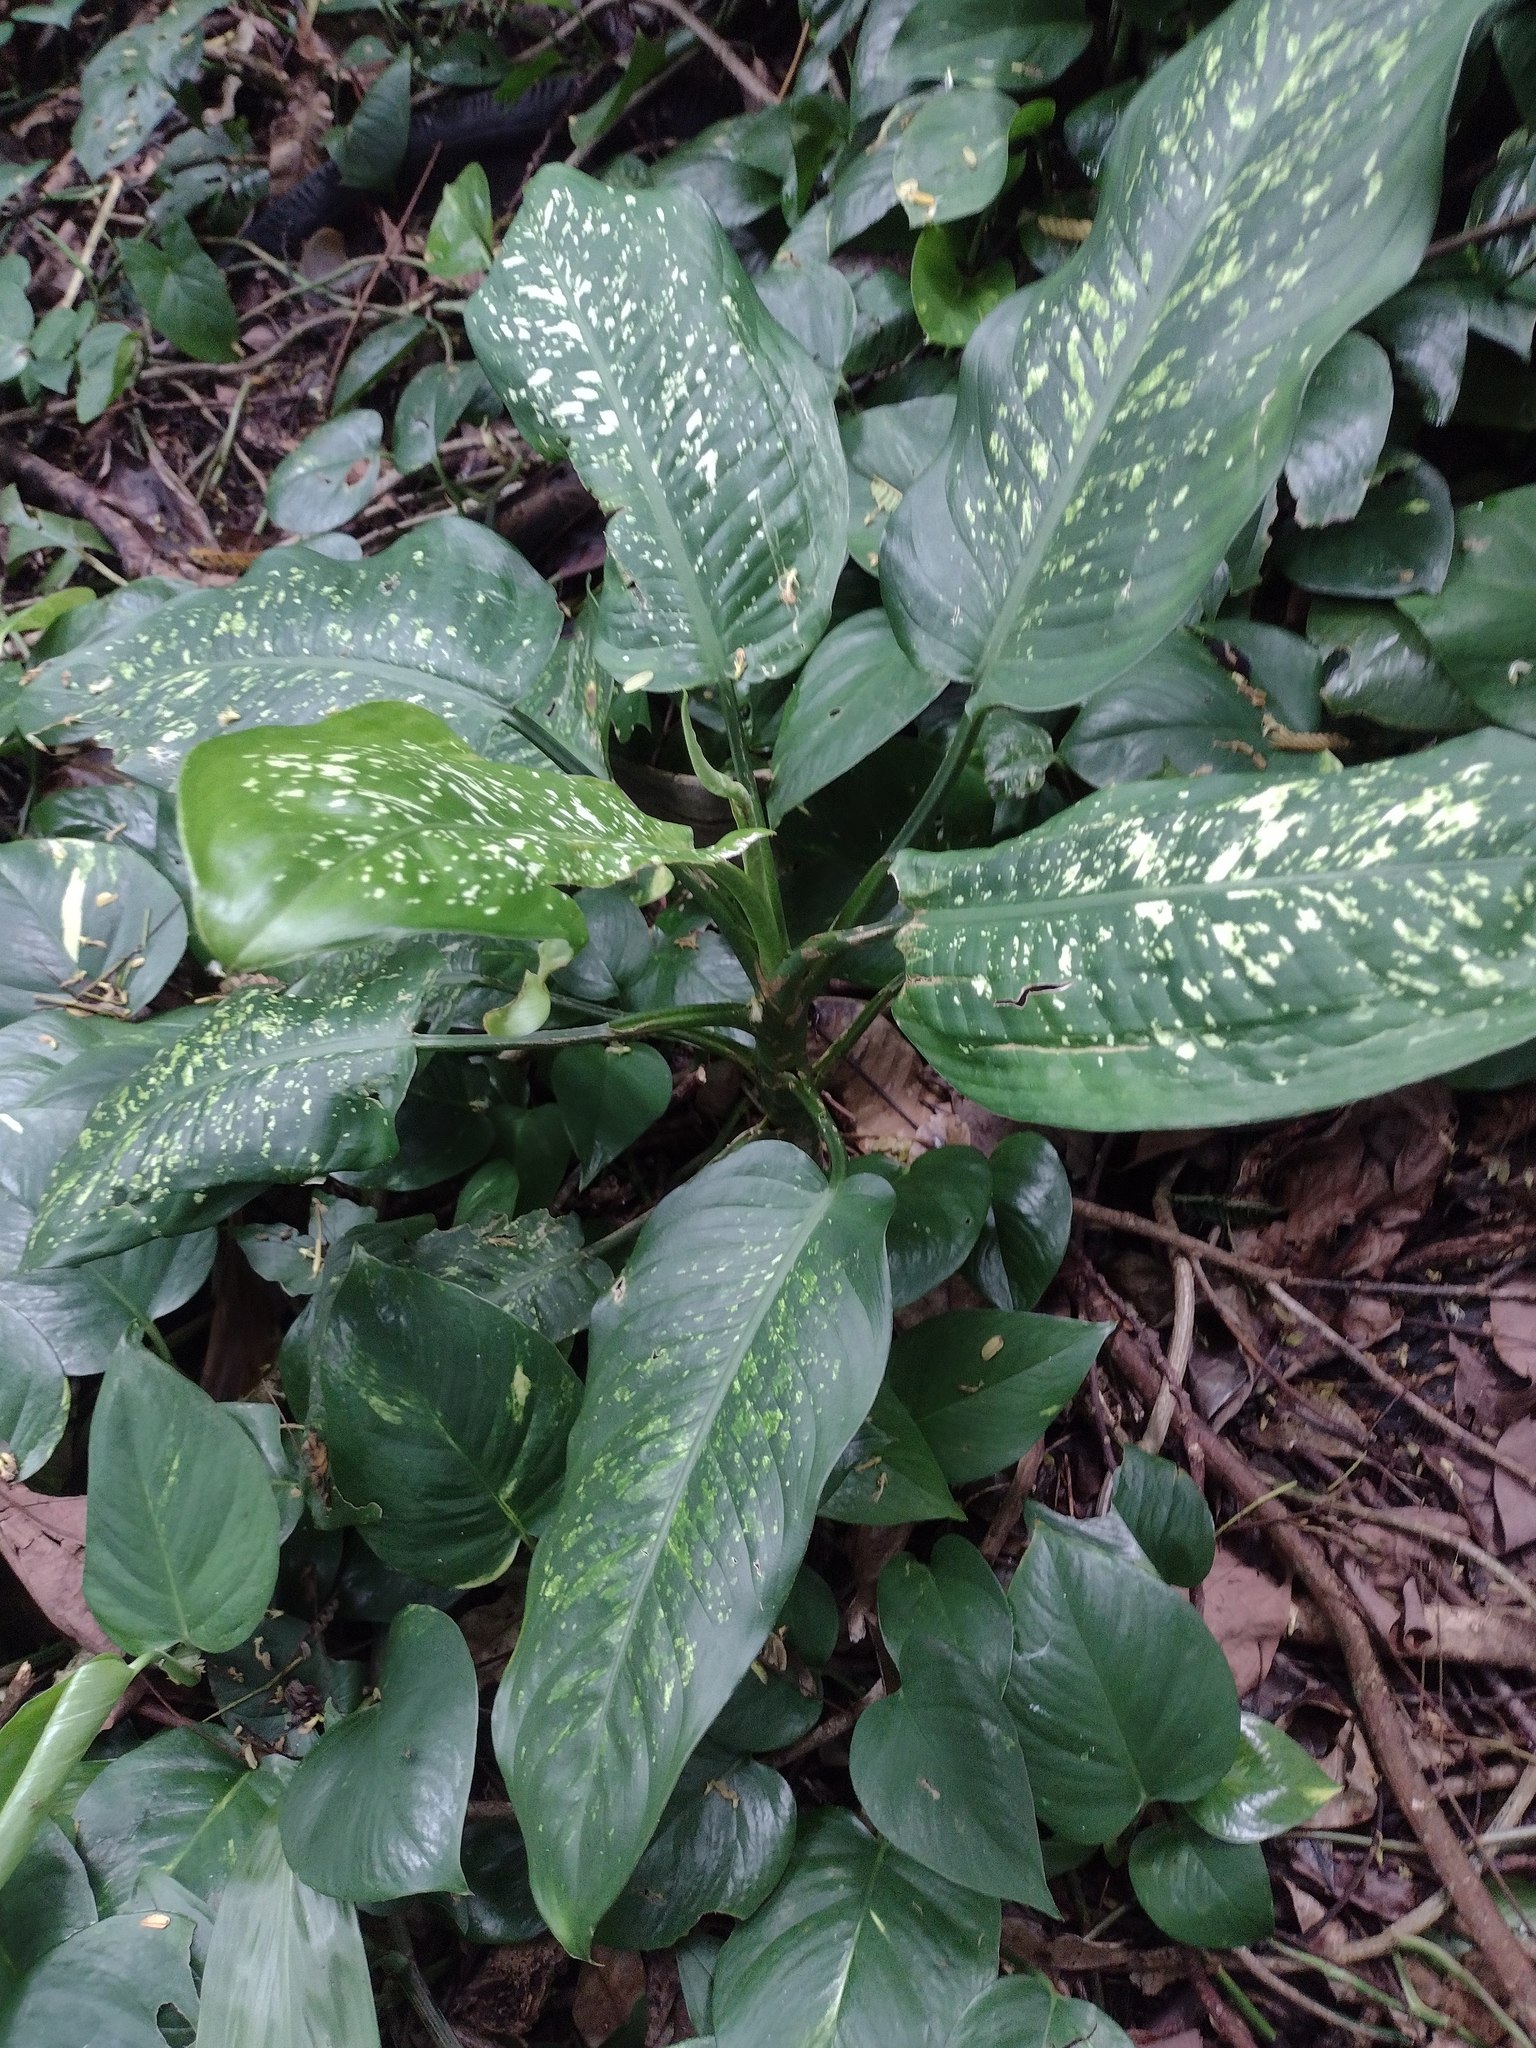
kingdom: Plantae
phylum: Tracheophyta
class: Liliopsida
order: Alismatales
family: Araceae
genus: Dieffenbachia
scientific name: Dieffenbachia seguine
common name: Dumbcane
